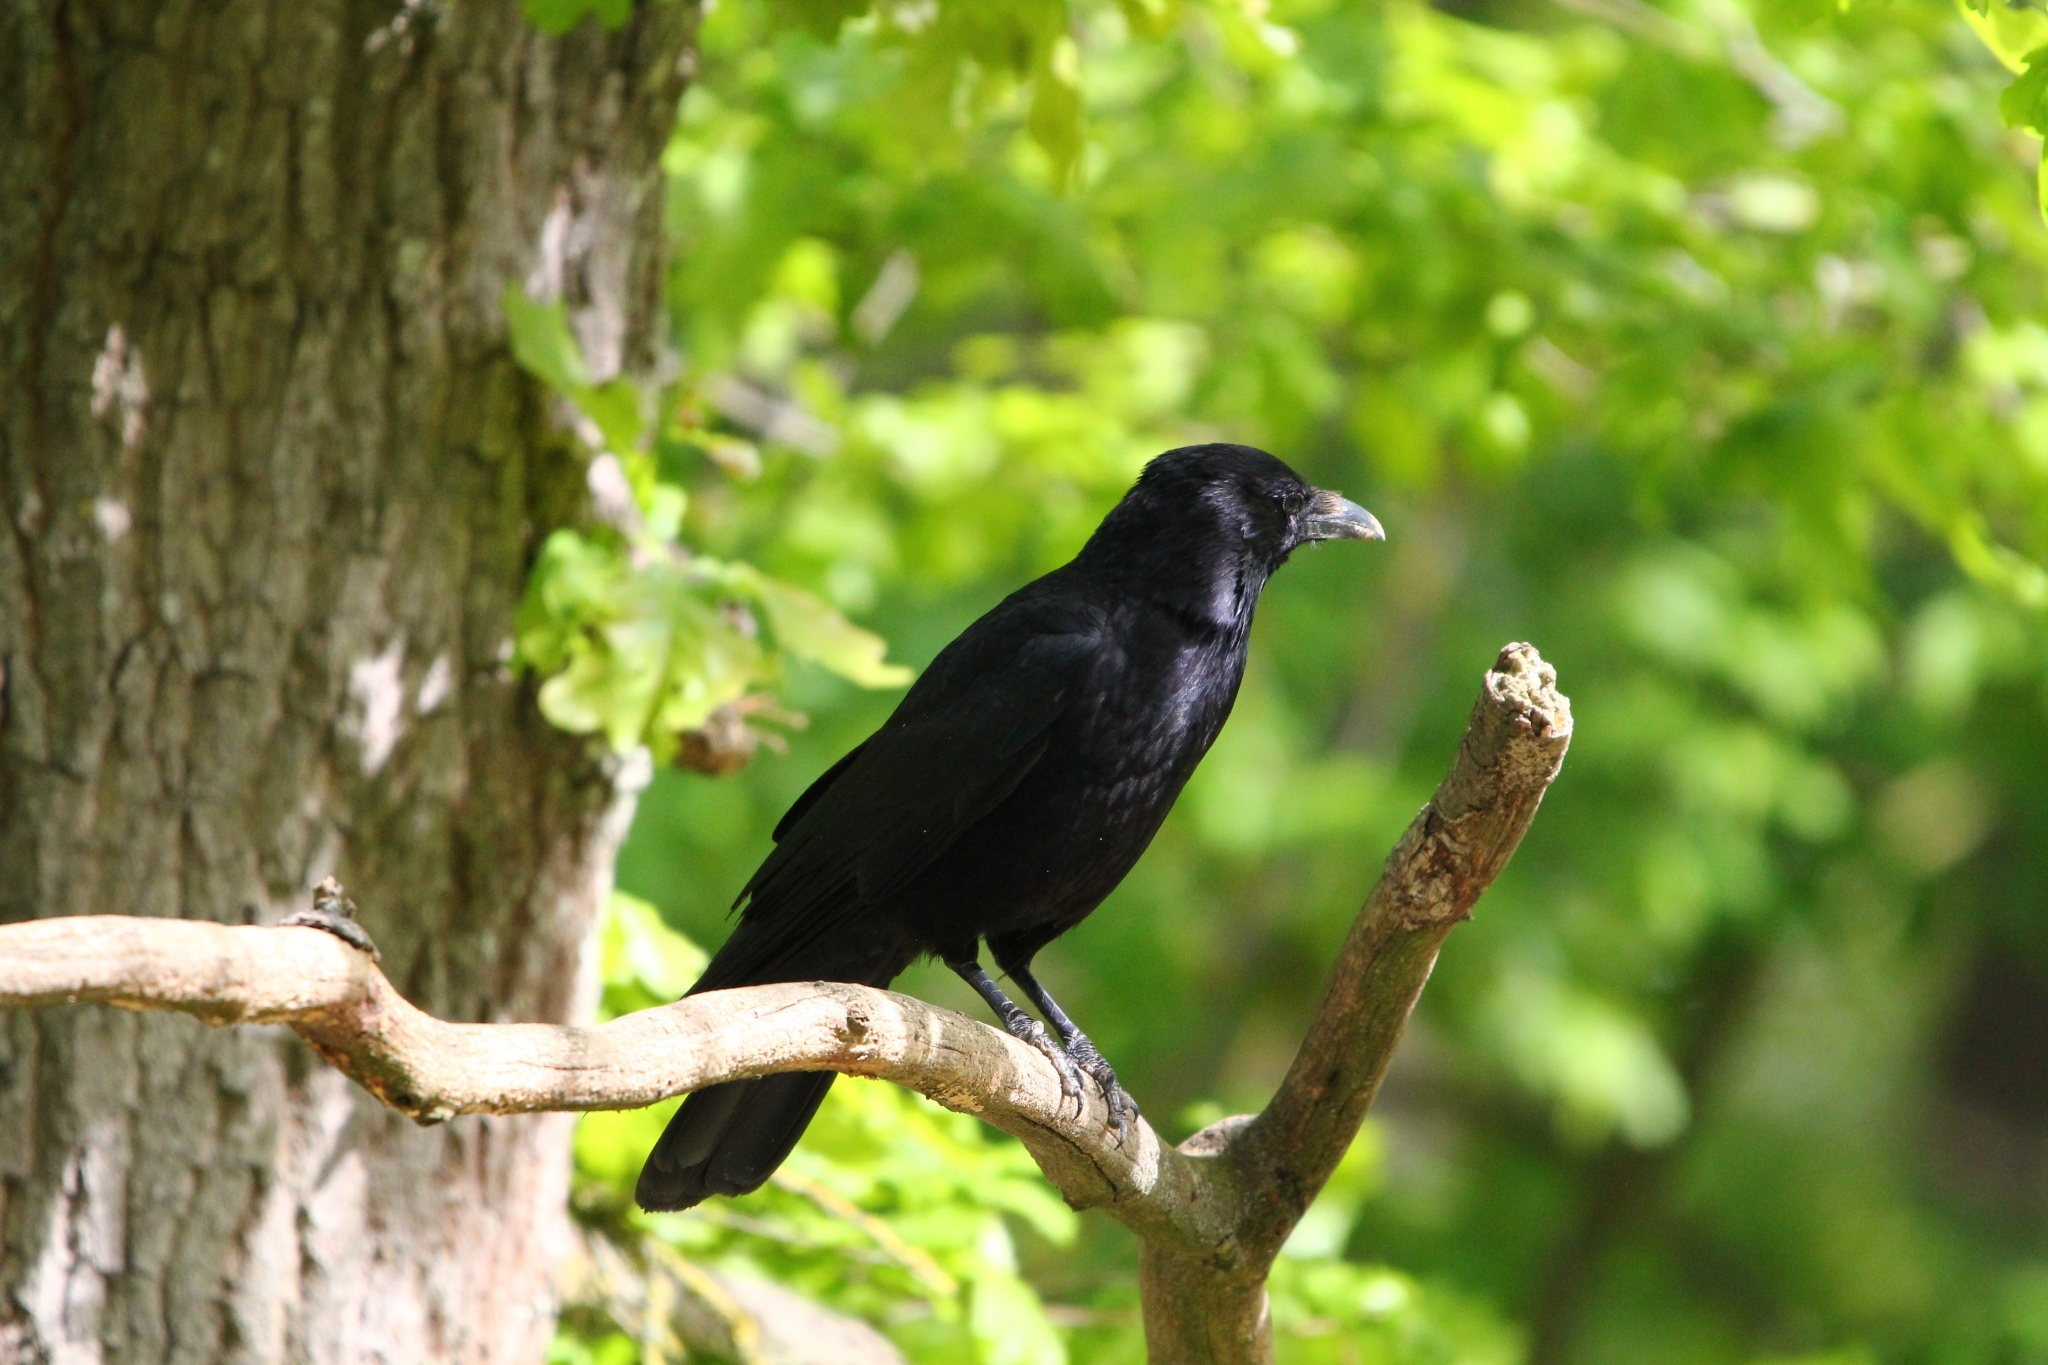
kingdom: Animalia
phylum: Chordata
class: Aves
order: Passeriformes
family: Corvidae
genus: Corvus
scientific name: Corvus corone
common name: Carrion crow
